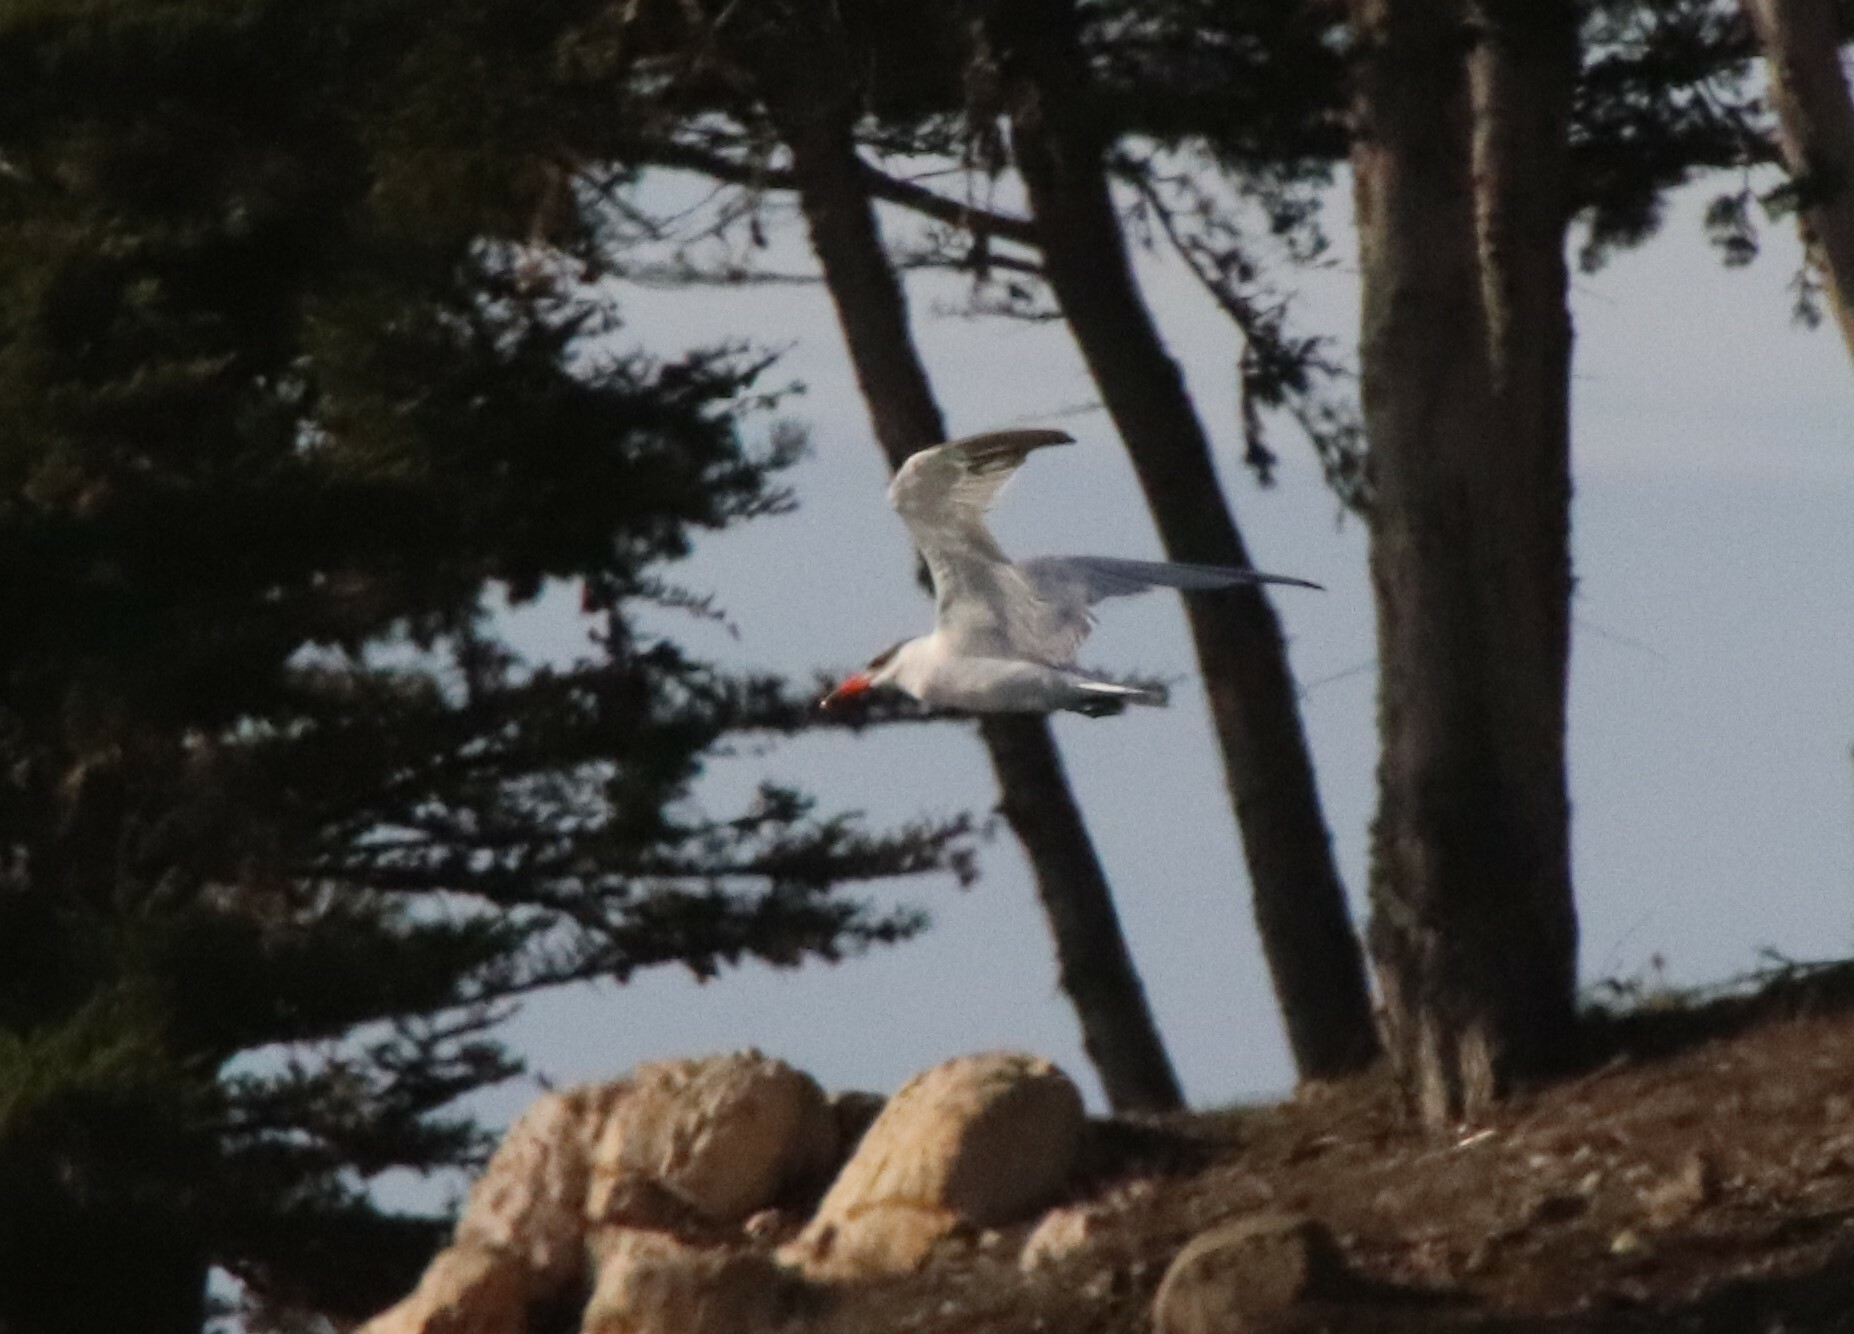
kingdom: Animalia
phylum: Chordata
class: Aves
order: Charadriiformes
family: Laridae
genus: Hydroprogne
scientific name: Hydroprogne caspia
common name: Caspian tern
